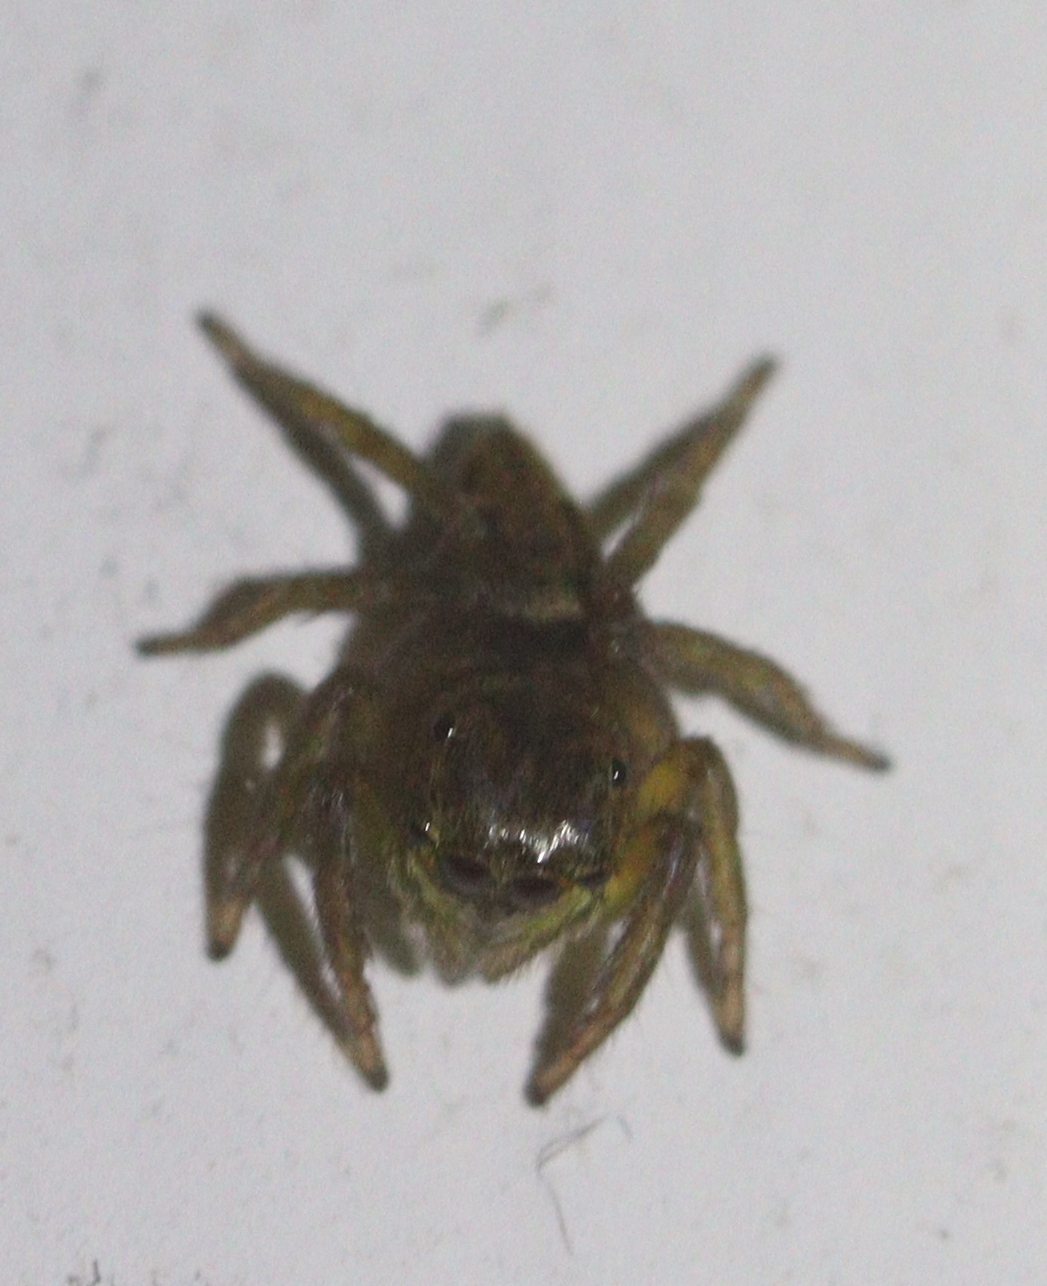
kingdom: Animalia
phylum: Arthropoda
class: Arachnida
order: Araneae
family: Salticidae
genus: Hasarius
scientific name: Hasarius adansoni
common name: Jumping spider
